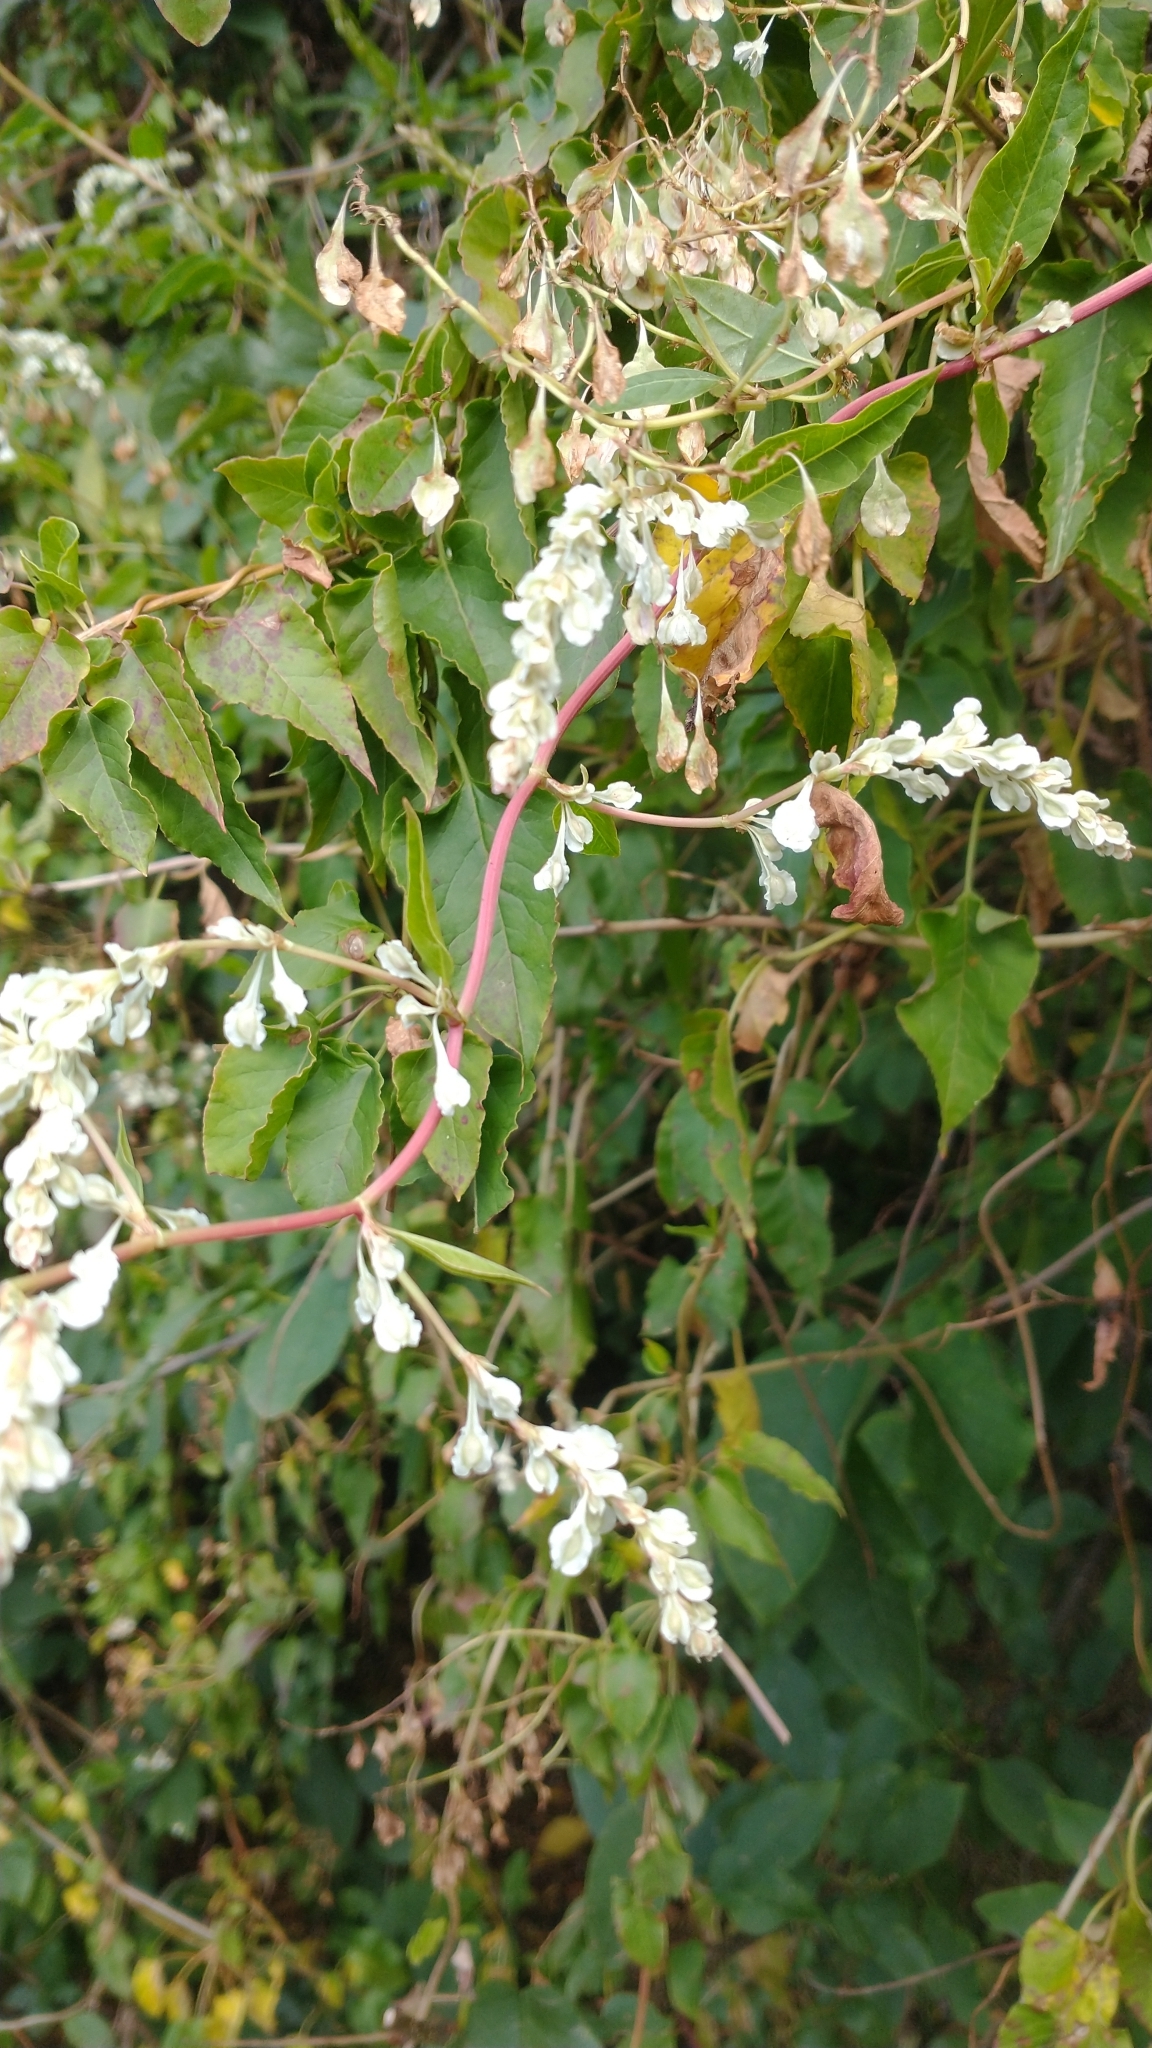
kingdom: Plantae
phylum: Tracheophyta
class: Magnoliopsida
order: Caryophyllales
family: Polygonaceae
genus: Fallopia
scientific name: Fallopia baldschuanica
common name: Russian-vine
